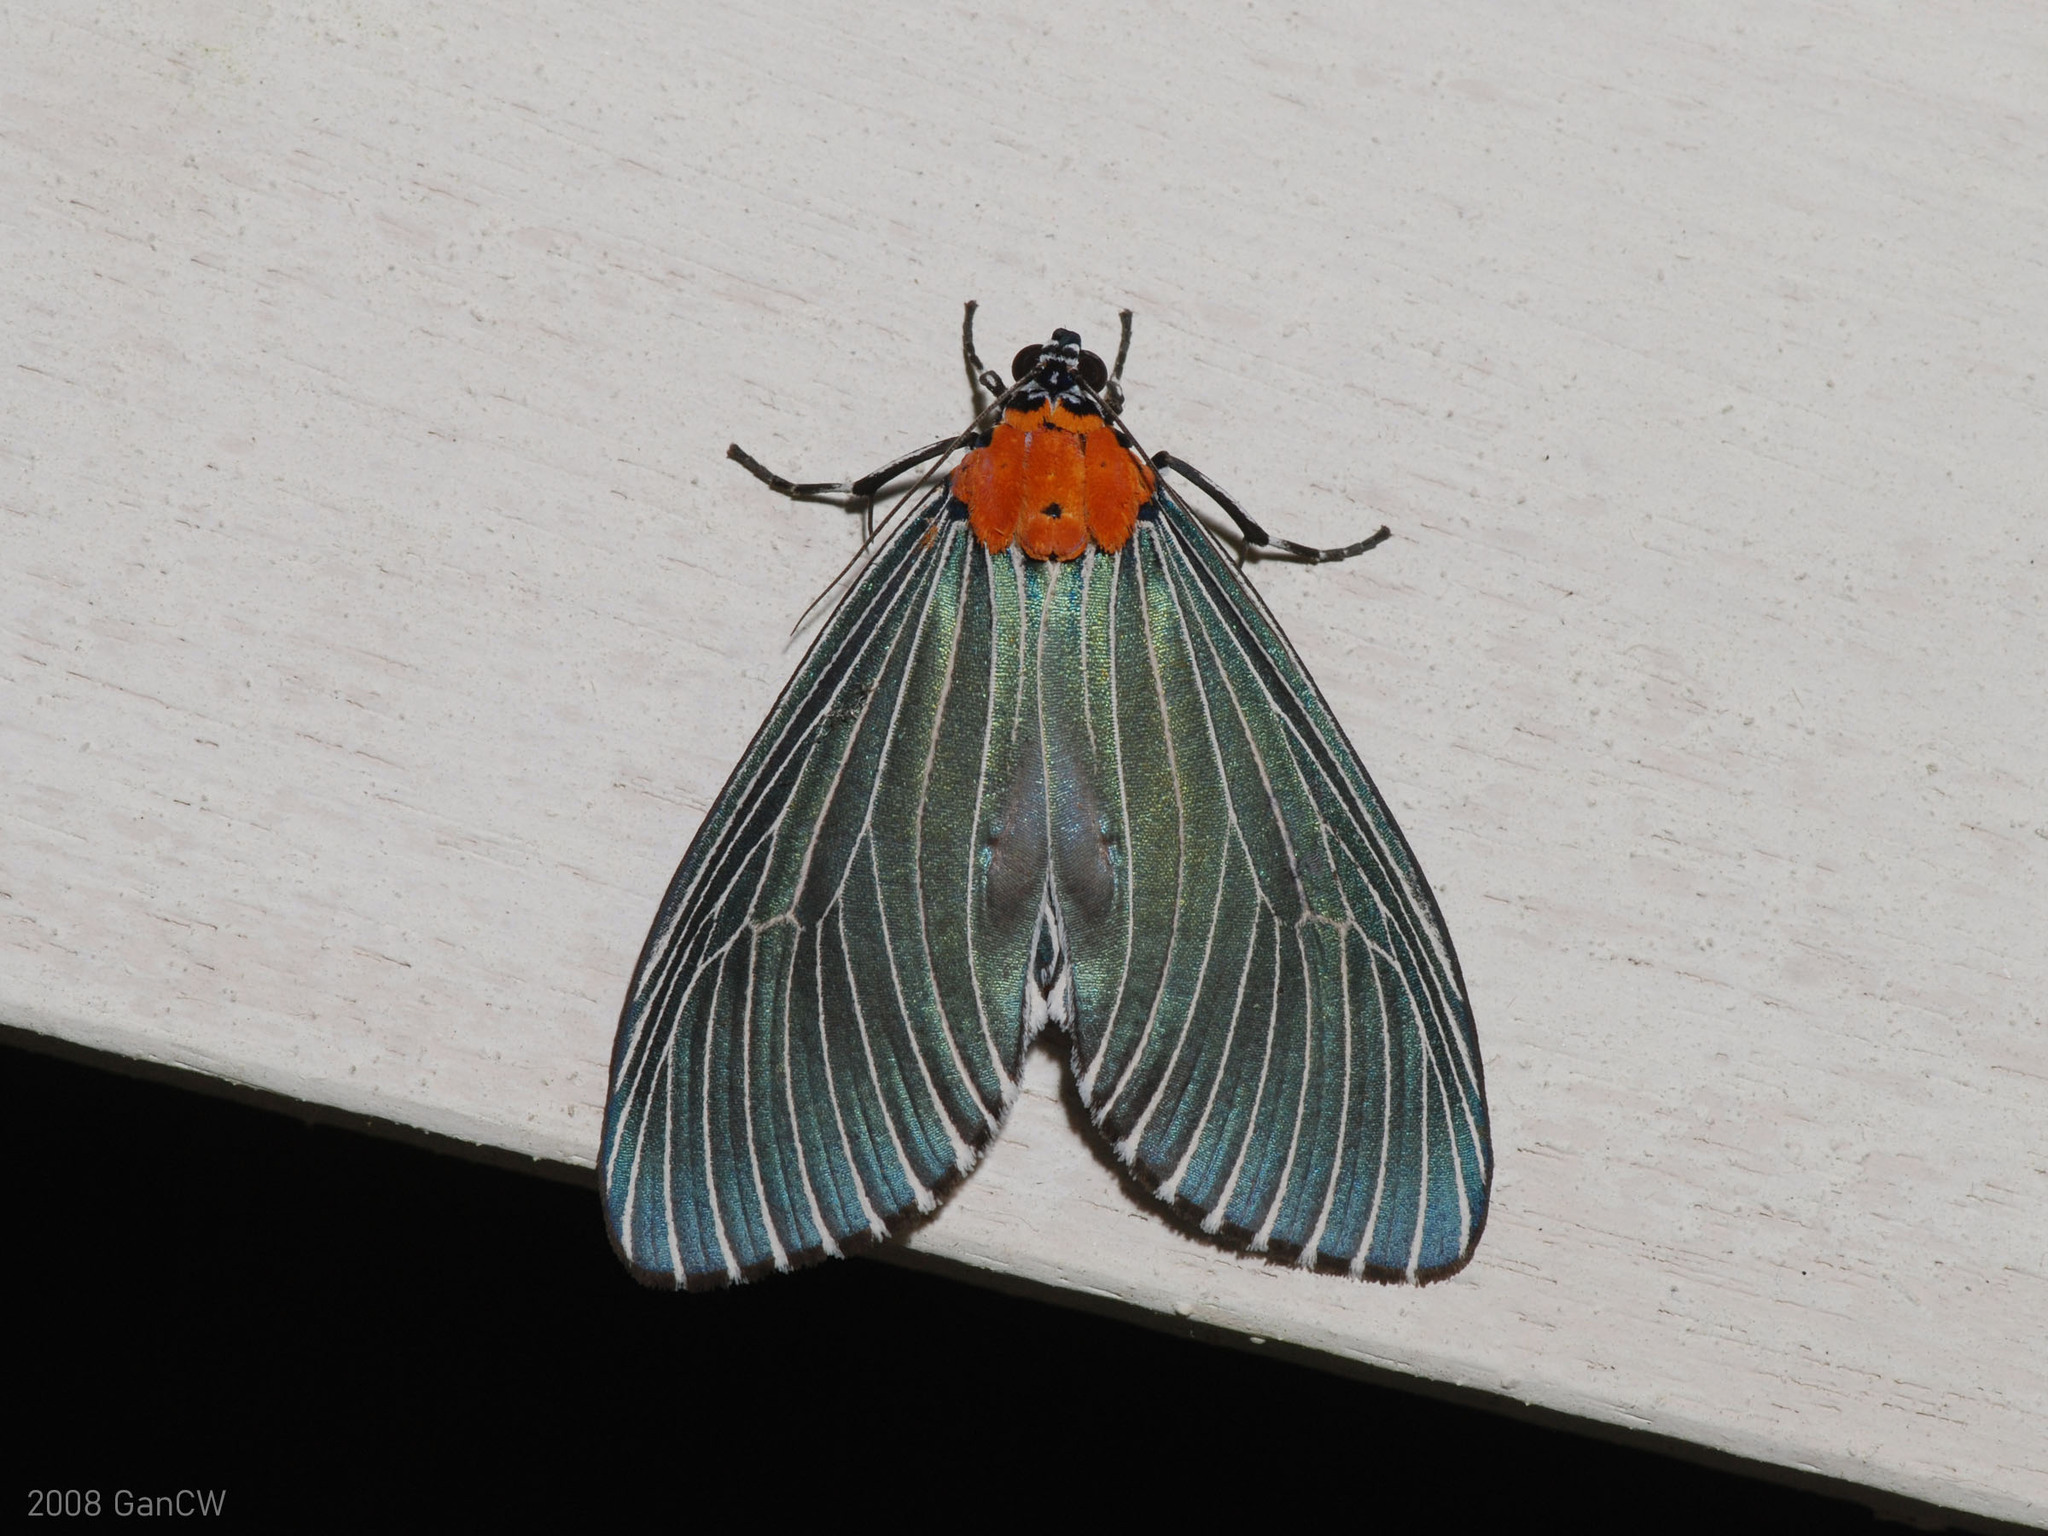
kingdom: Animalia
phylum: Arthropoda
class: Insecta
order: Lepidoptera
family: Erebidae
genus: Neochera
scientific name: Neochera marmorea
